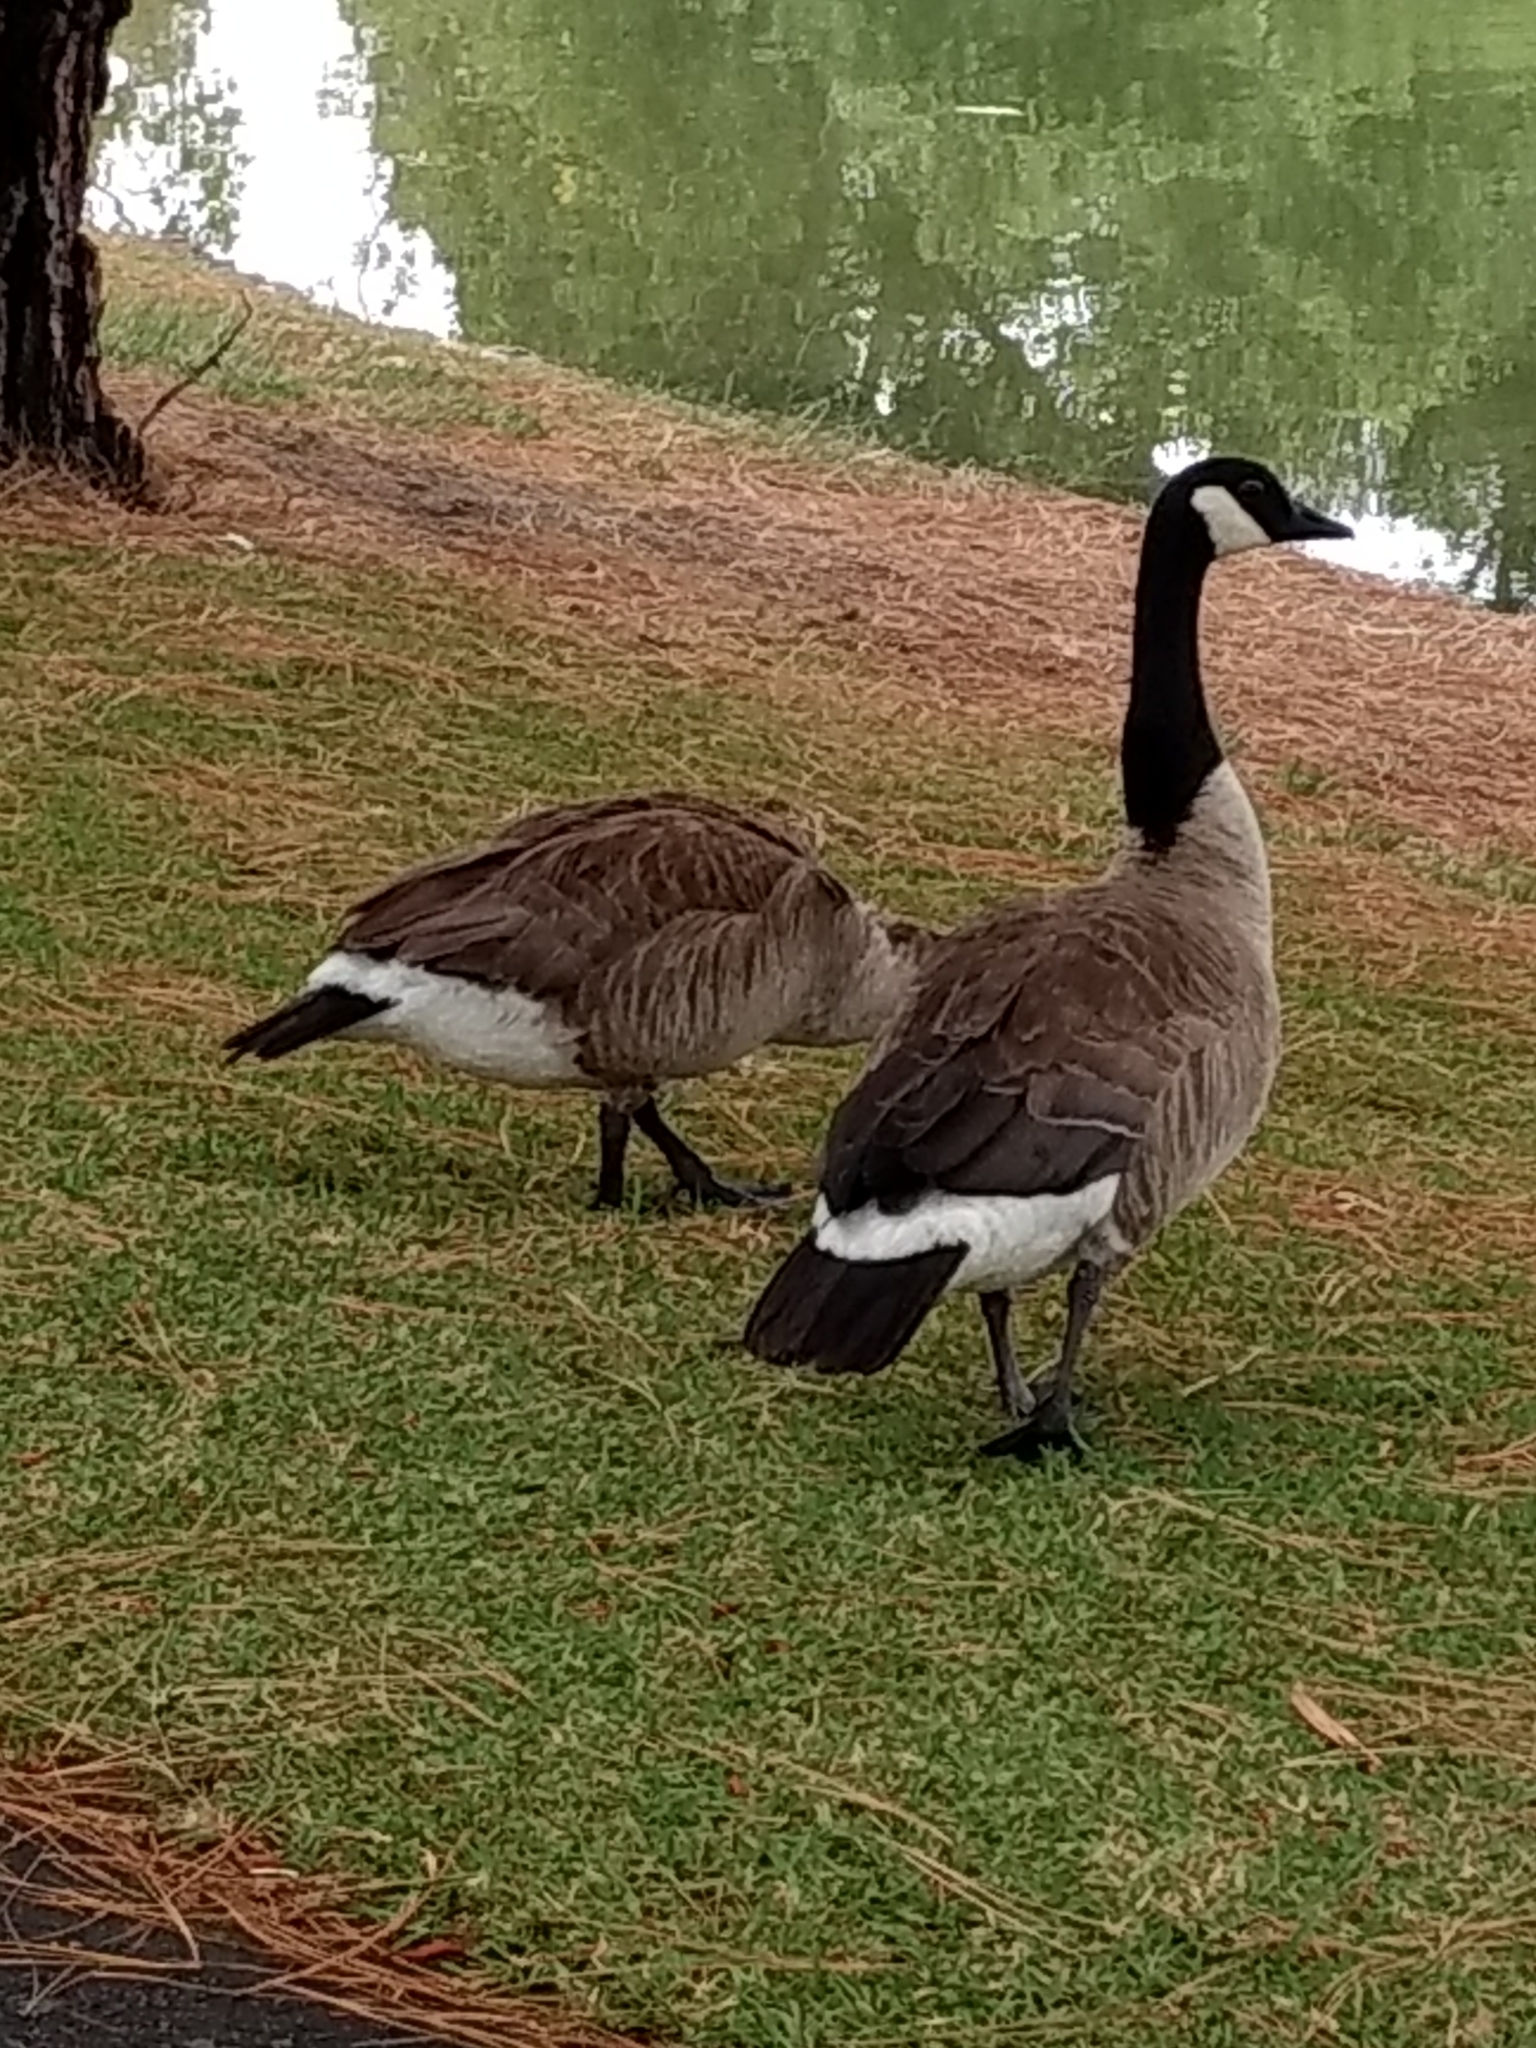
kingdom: Animalia
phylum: Chordata
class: Aves
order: Anseriformes
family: Anatidae
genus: Branta
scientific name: Branta canadensis
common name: Canada goose
